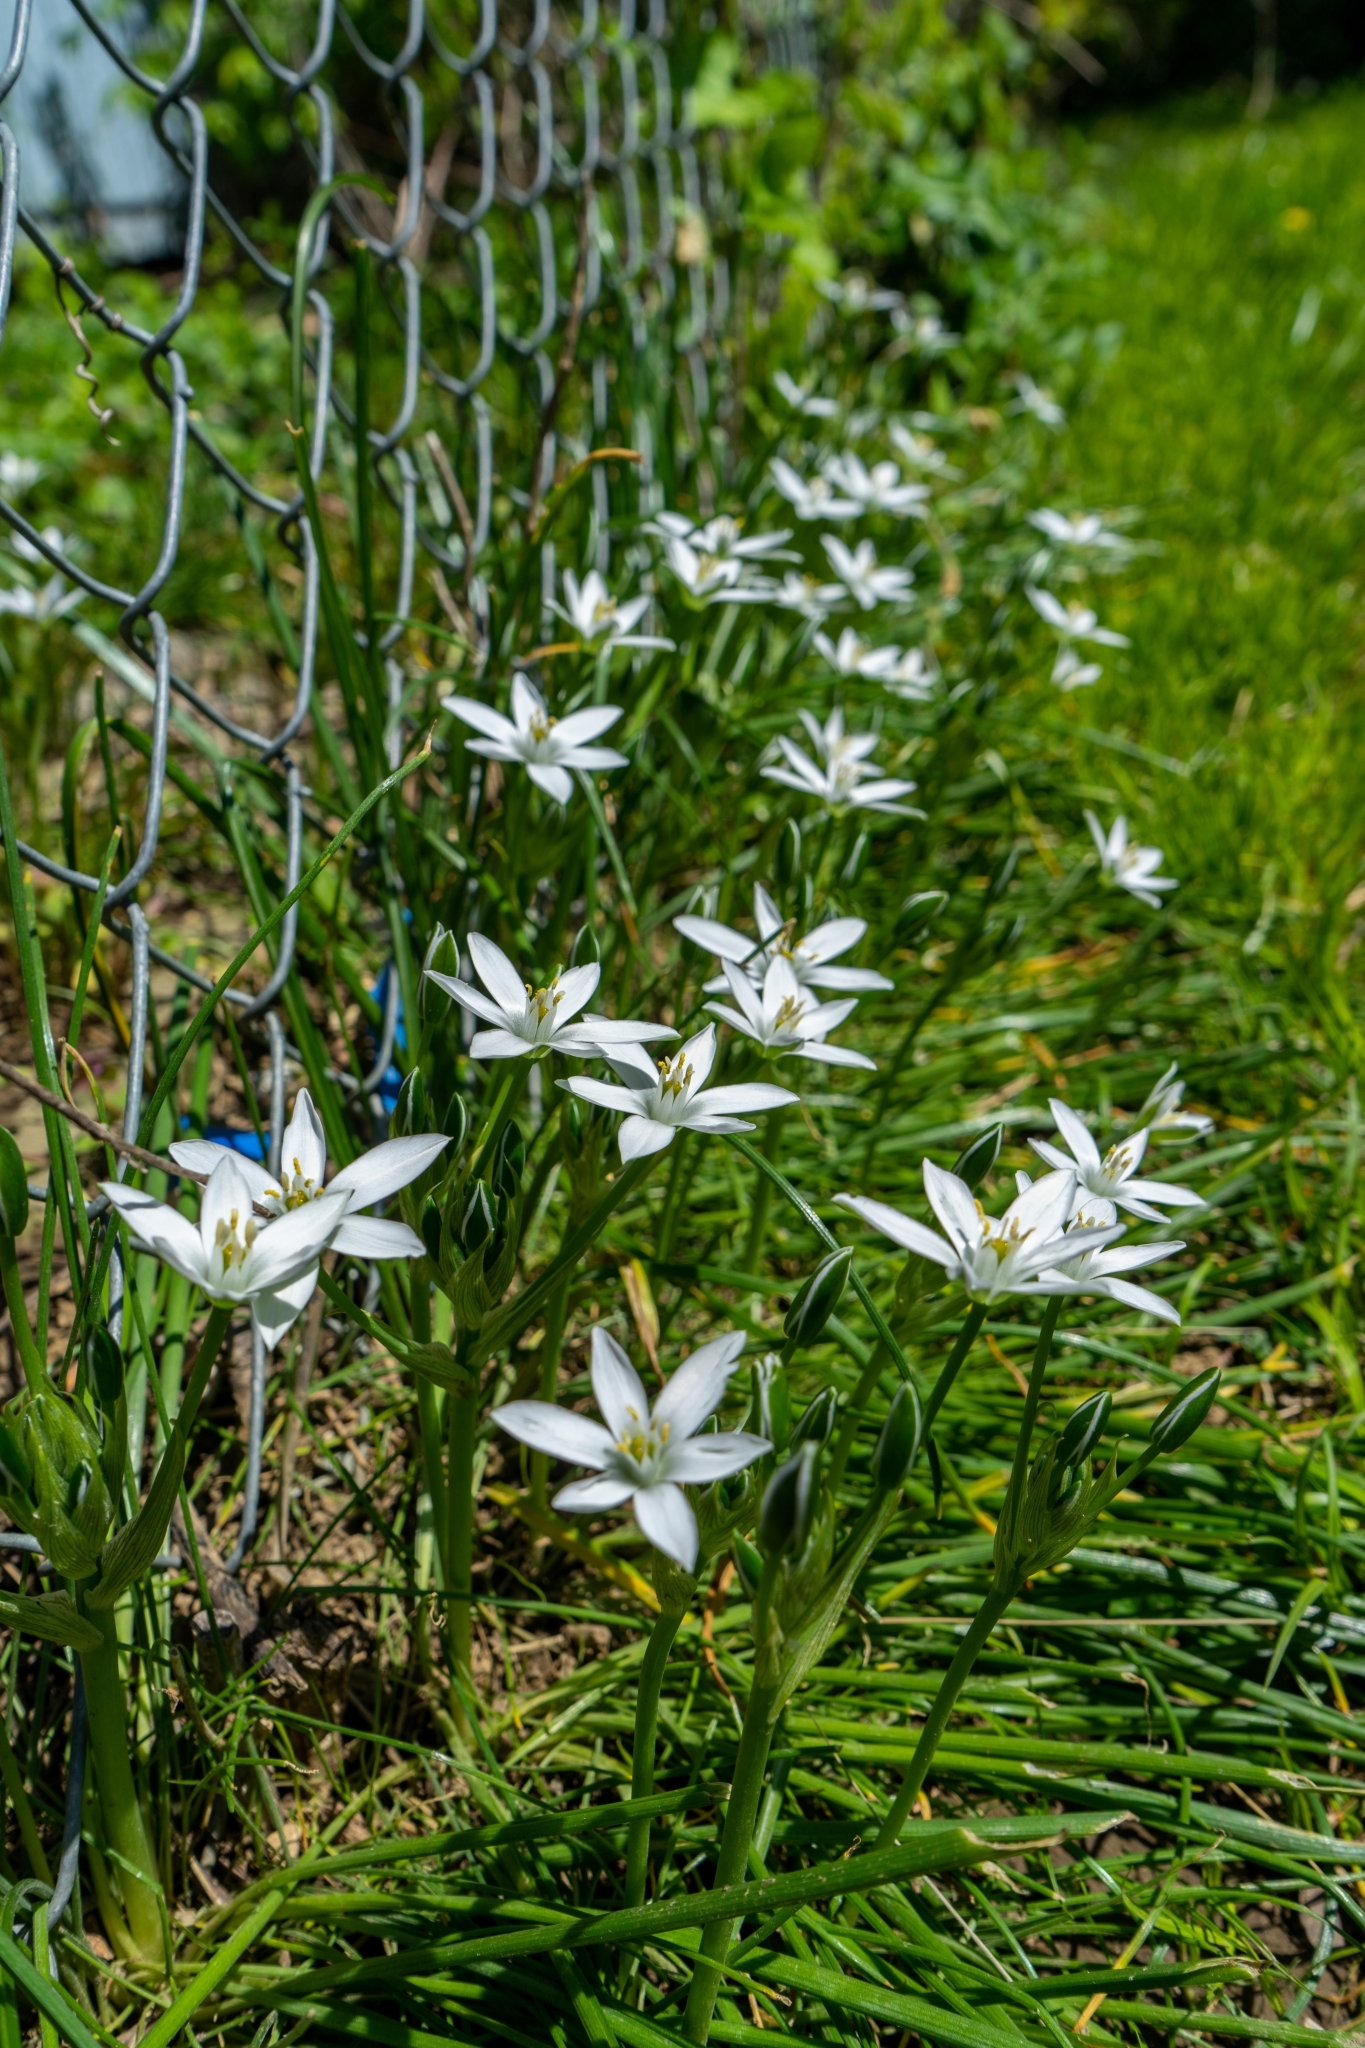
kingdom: Plantae
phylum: Tracheophyta
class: Liliopsida
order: Asparagales
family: Asparagaceae
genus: Ornithogalum
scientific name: Ornithogalum umbellatum
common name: Garden star-of-bethlehem
